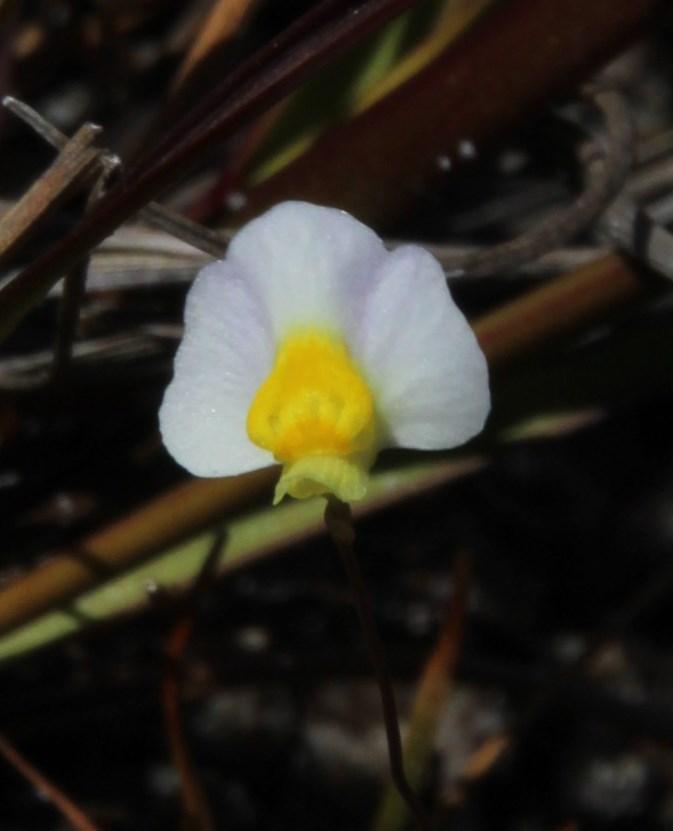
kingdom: Plantae
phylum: Tracheophyta
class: Magnoliopsida
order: Lamiales
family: Lentibulariaceae
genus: Utricularia
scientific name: Utricularia bisquamata
